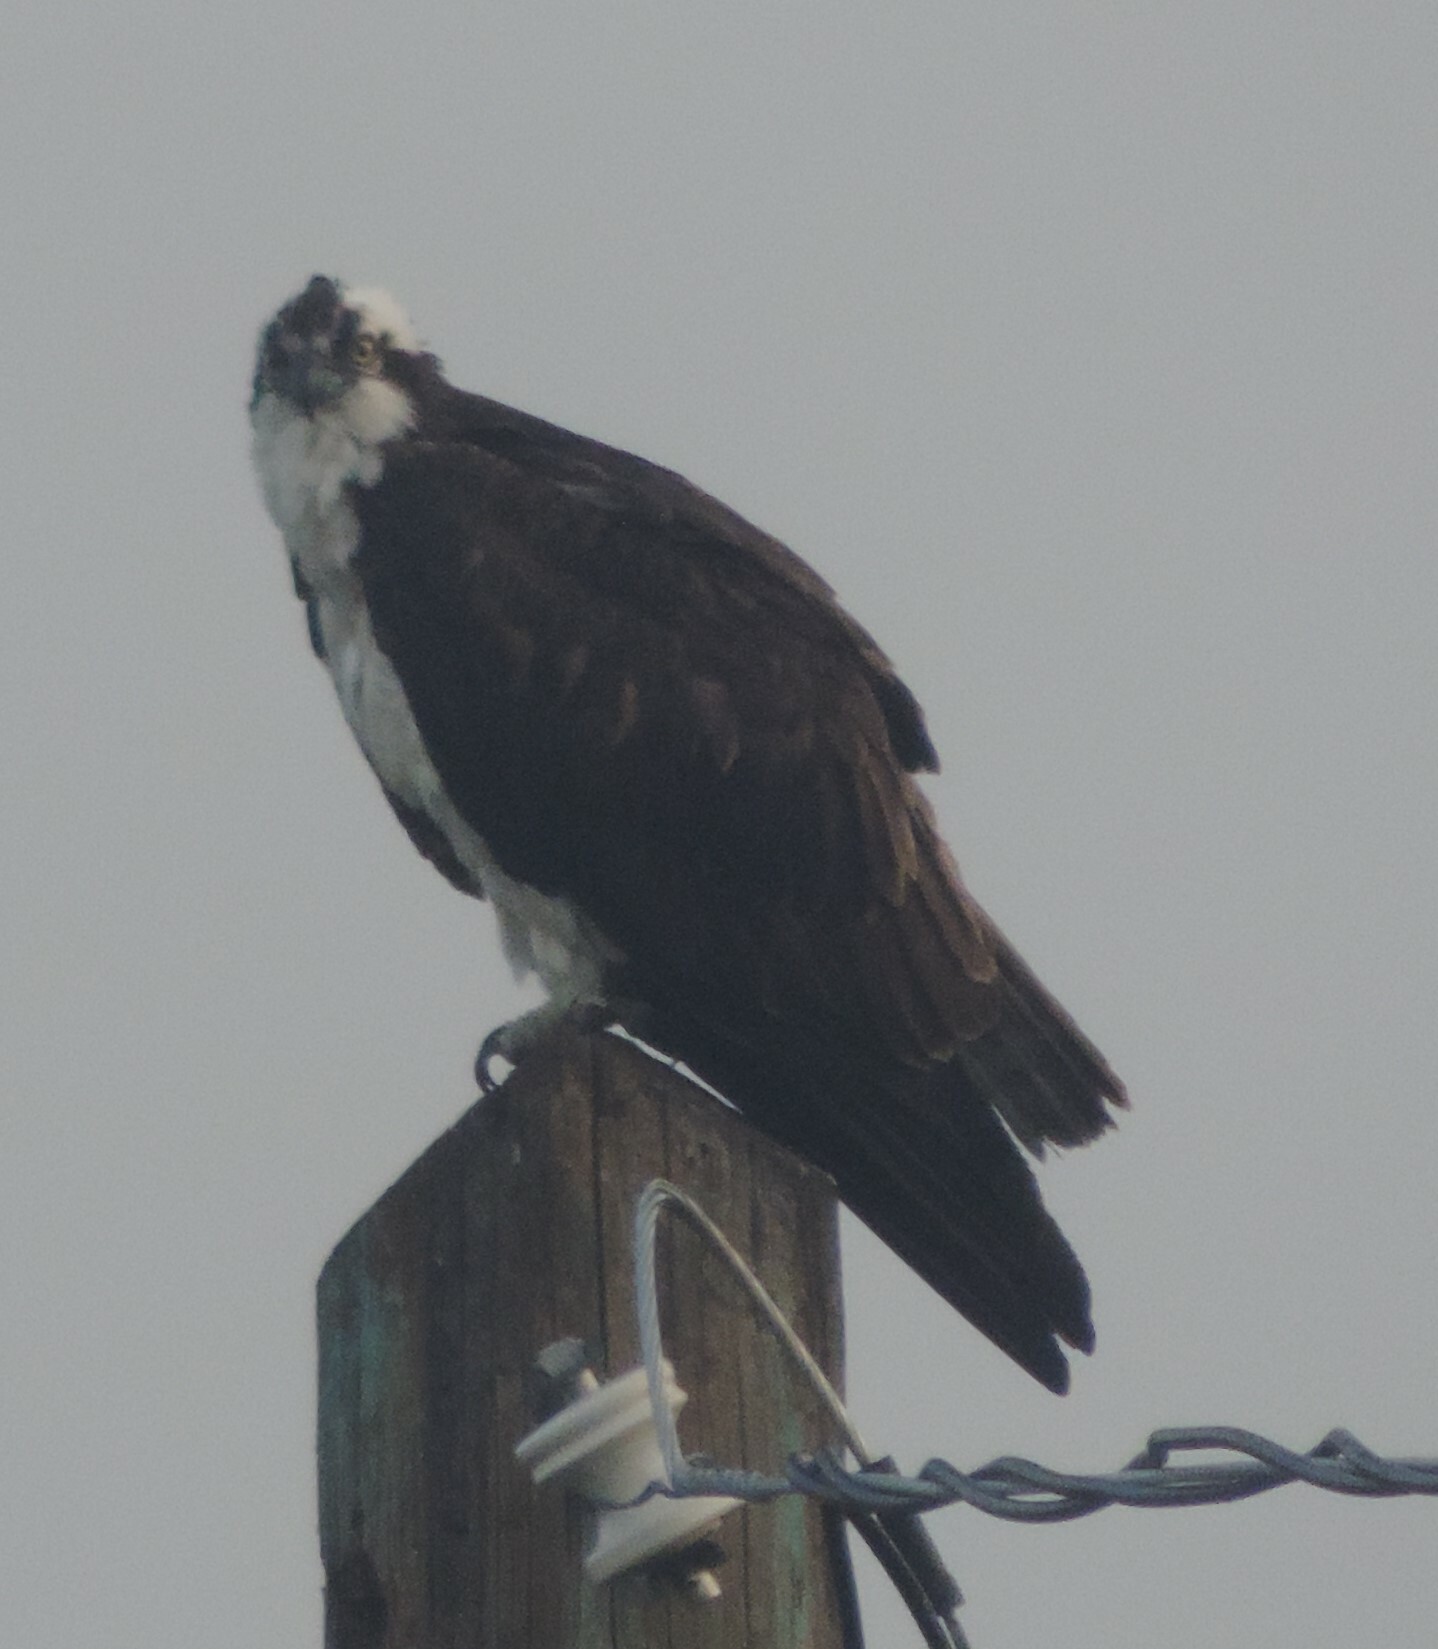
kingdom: Animalia
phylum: Chordata
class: Aves
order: Accipitriformes
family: Pandionidae
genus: Pandion
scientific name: Pandion haliaetus
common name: Osprey
